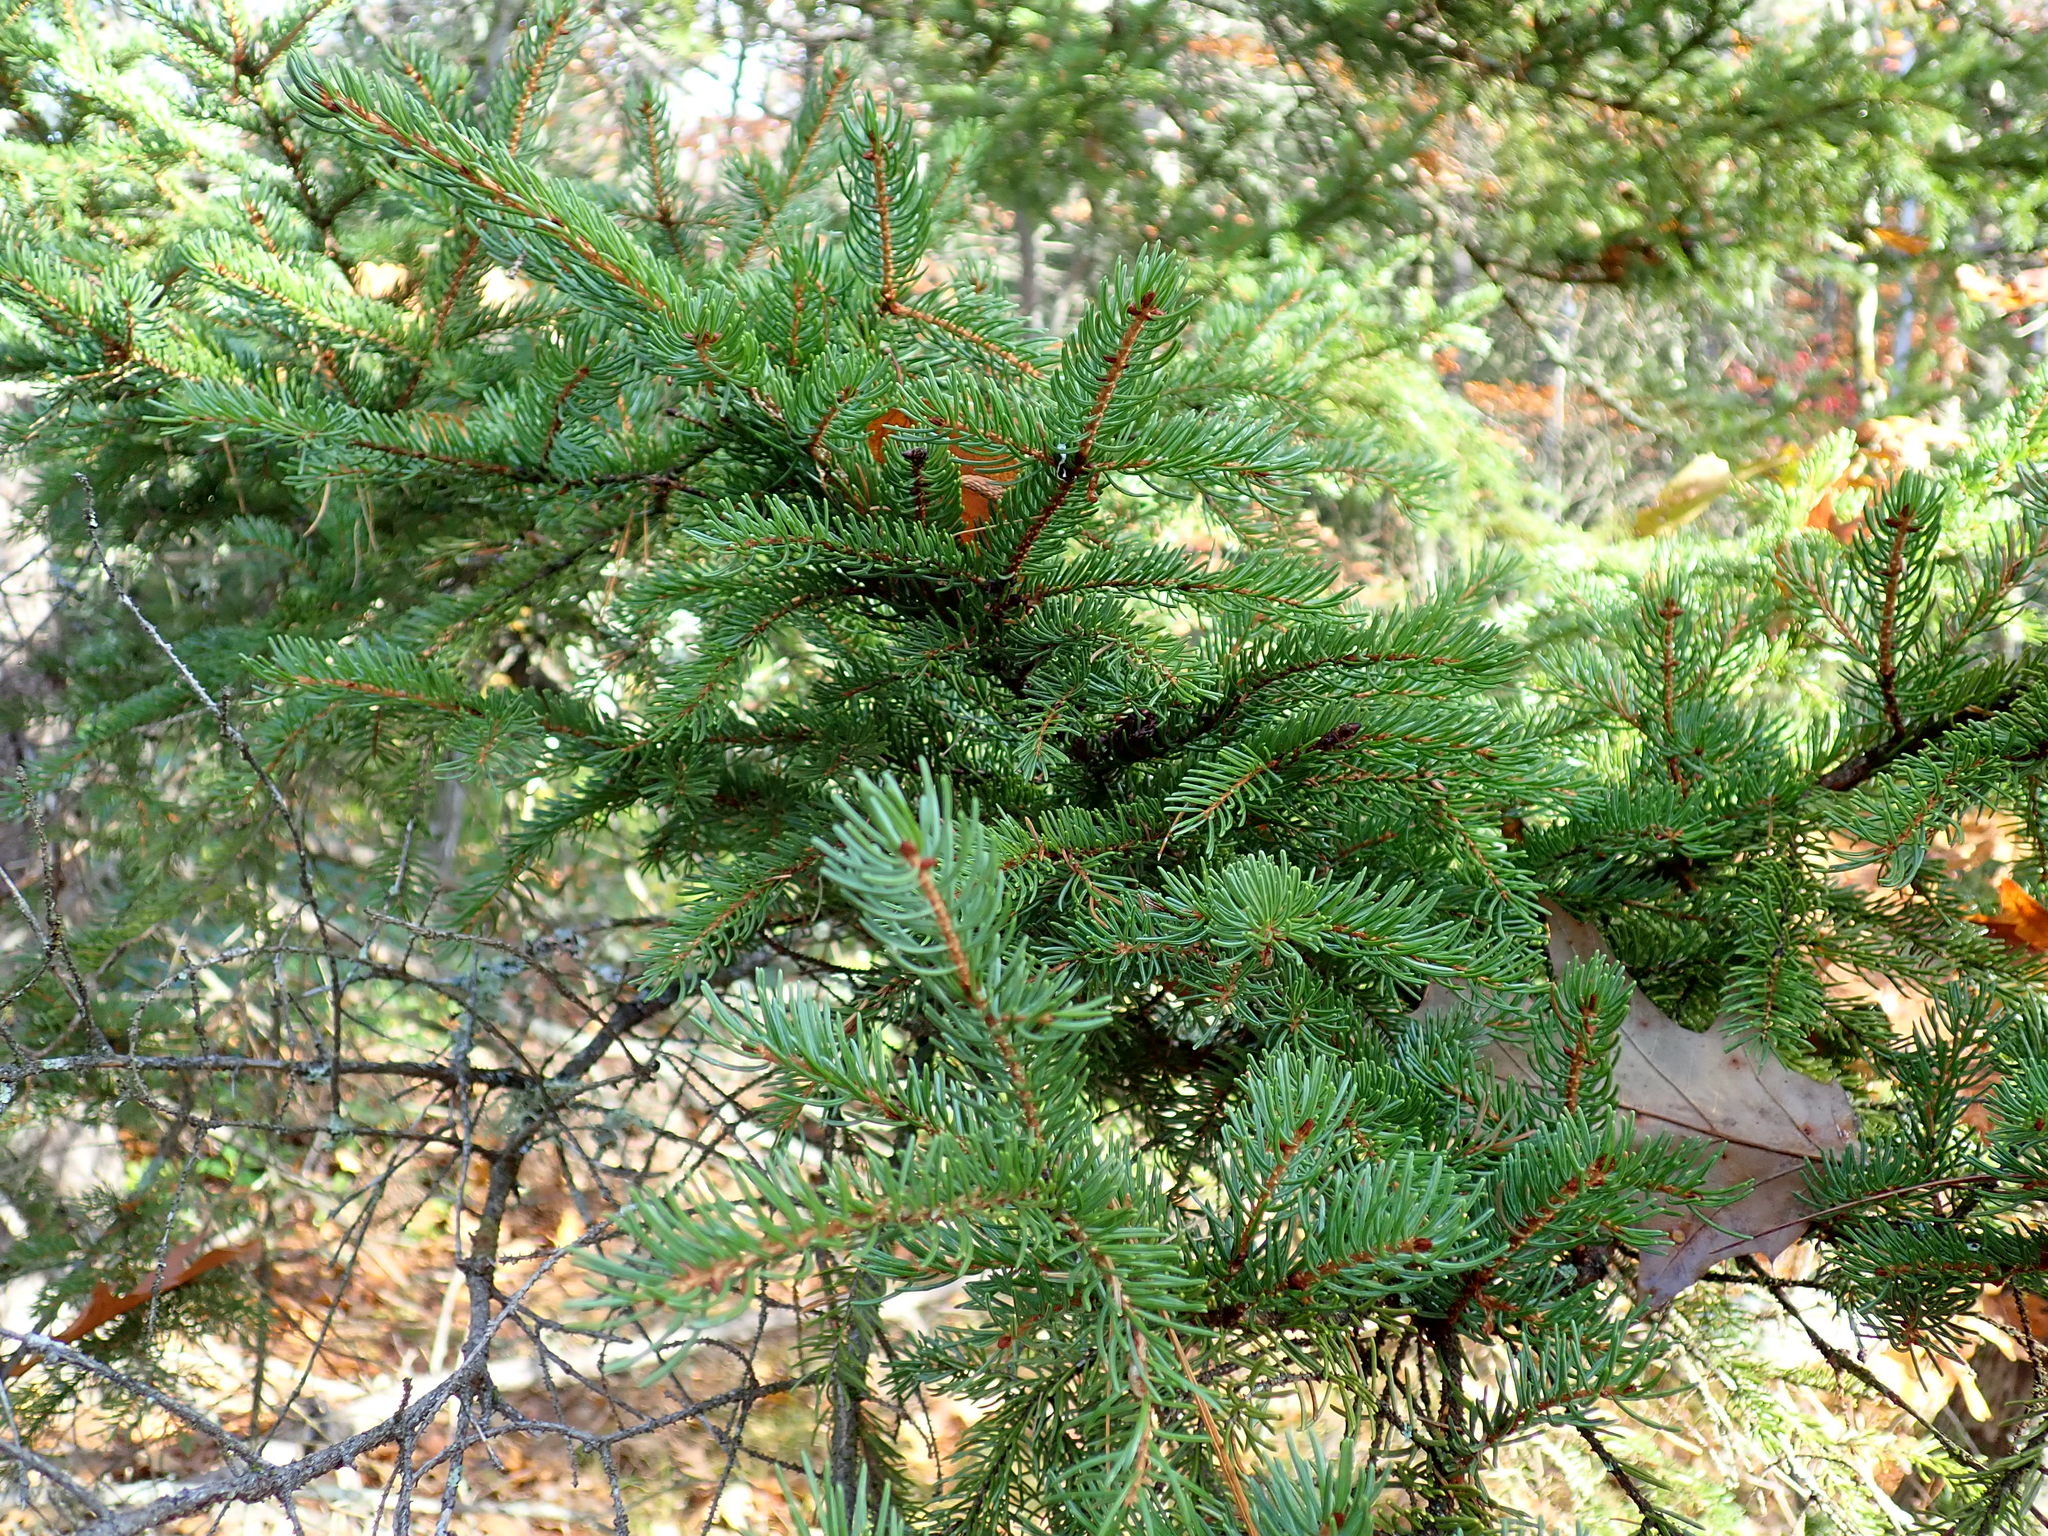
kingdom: Plantae
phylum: Tracheophyta
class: Pinopsida
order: Pinales
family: Pinaceae
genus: Picea
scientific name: Picea rubens
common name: Red spruce
